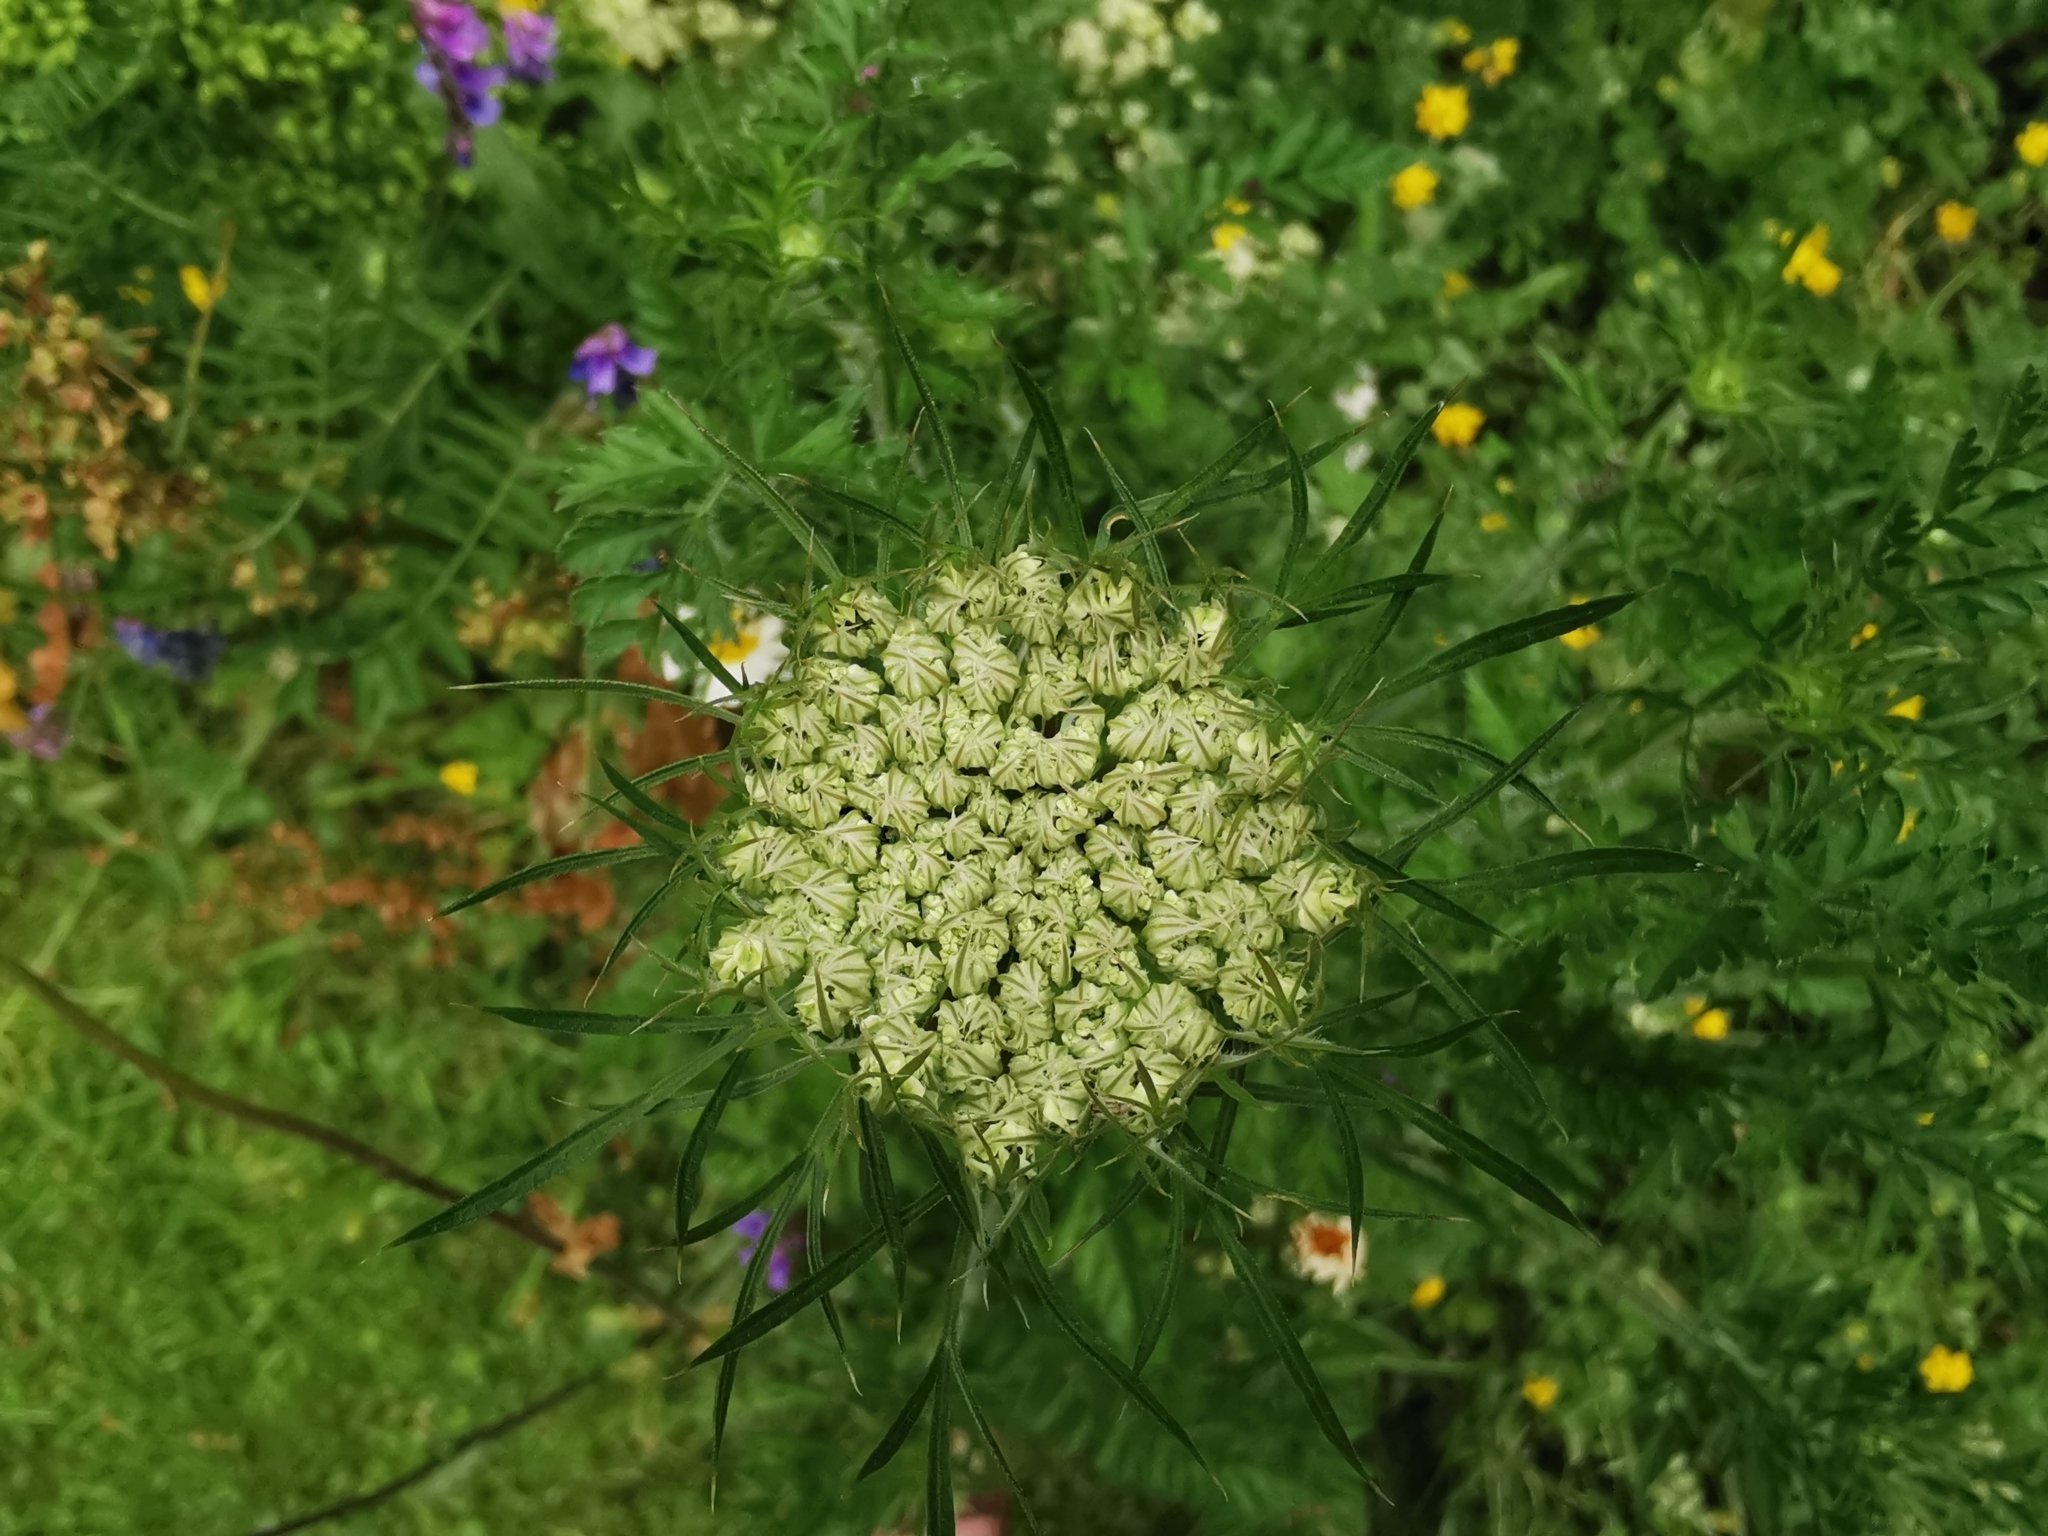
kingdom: Plantae
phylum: Tracheophyta
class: Magnoliopsida
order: Apiales
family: Apiaceae
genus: Daucus
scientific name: Daucus carota
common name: Wild carrot
